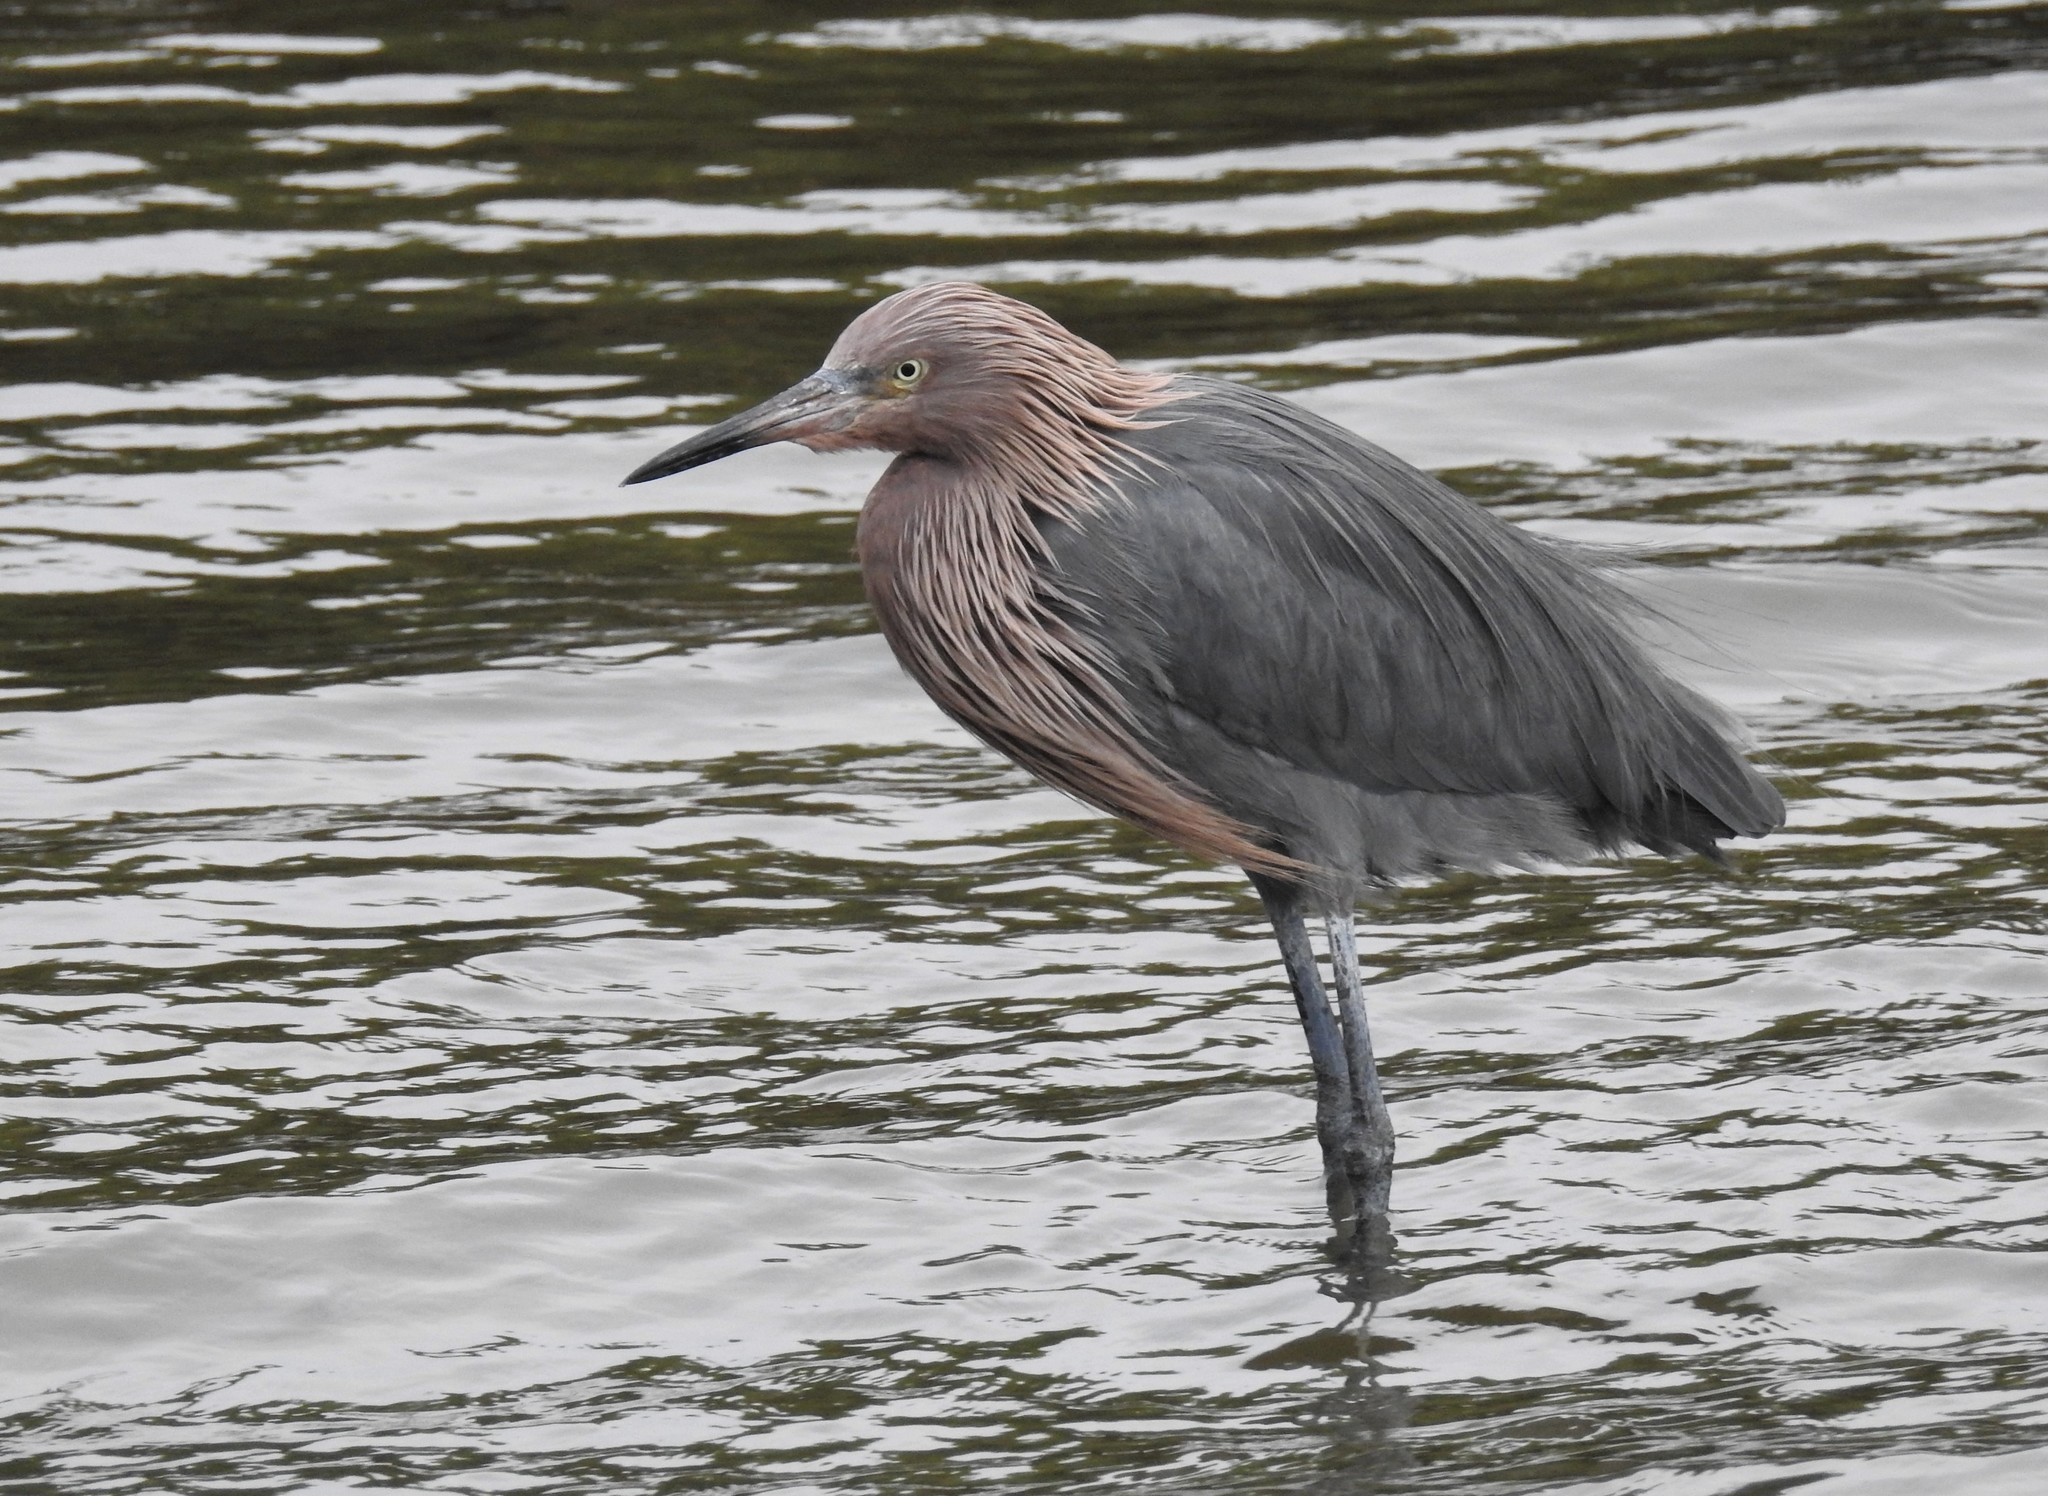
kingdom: Animalia
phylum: Chordata
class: Aves
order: Pelecaniformes
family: Ardeidae
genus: Egretta
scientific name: Egretta rufescens
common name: Reddish egret
